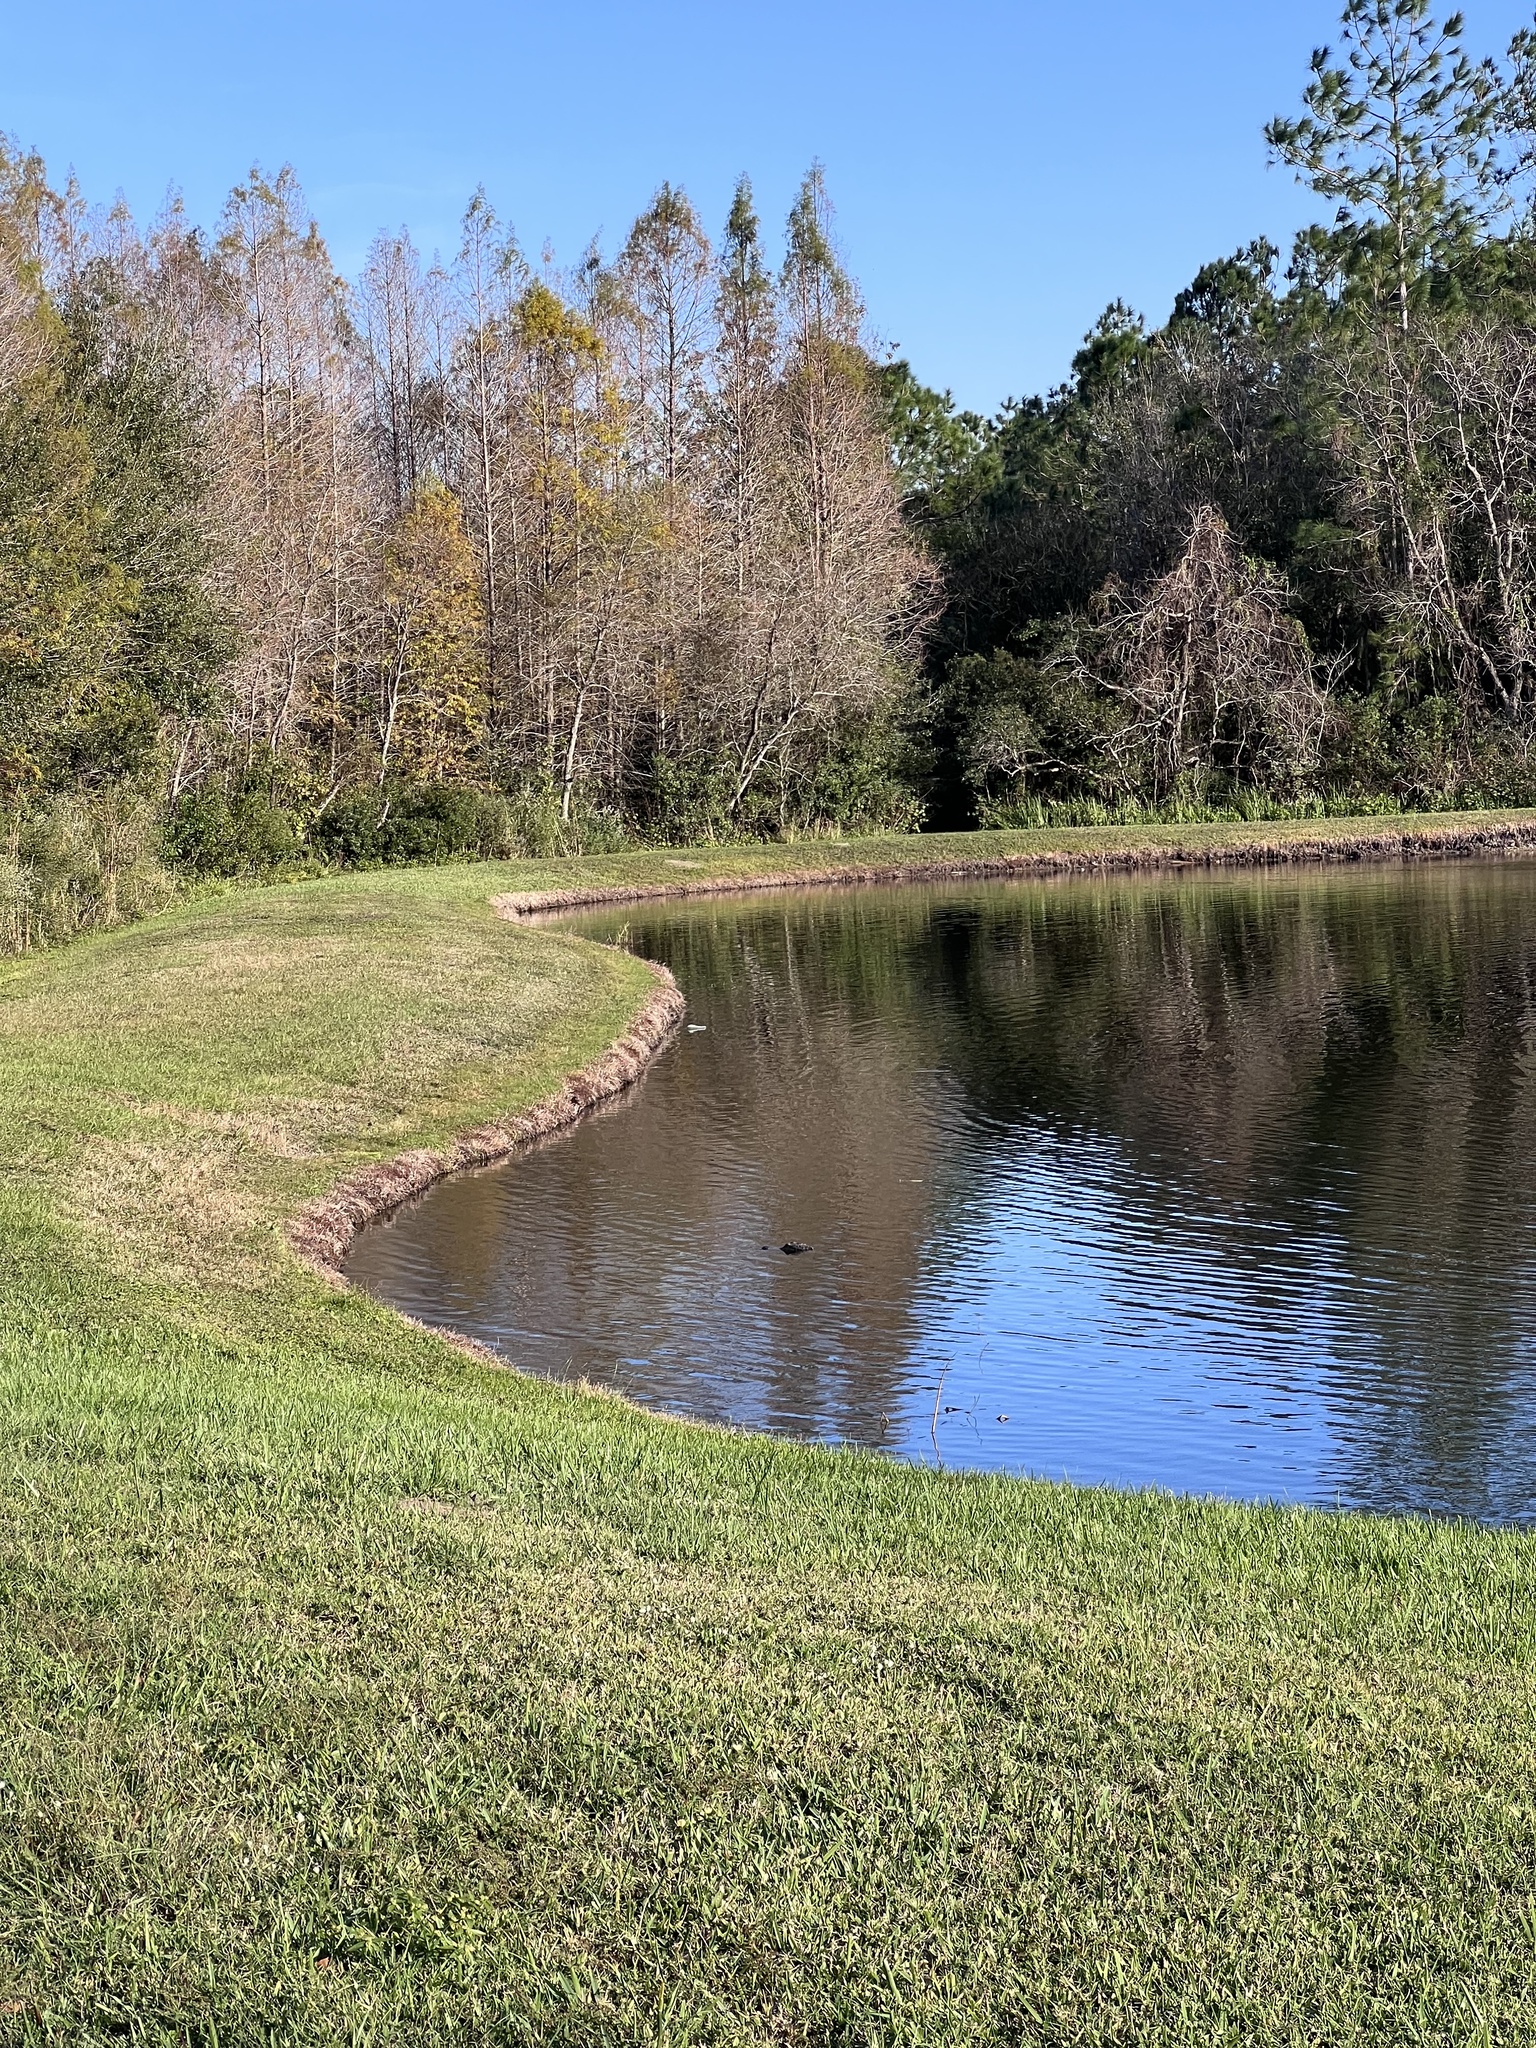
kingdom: Animalia
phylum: Chordata
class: Crocodylia
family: Alligatoridae
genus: Alligator
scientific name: Alligator mississippiensis
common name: American alligator
